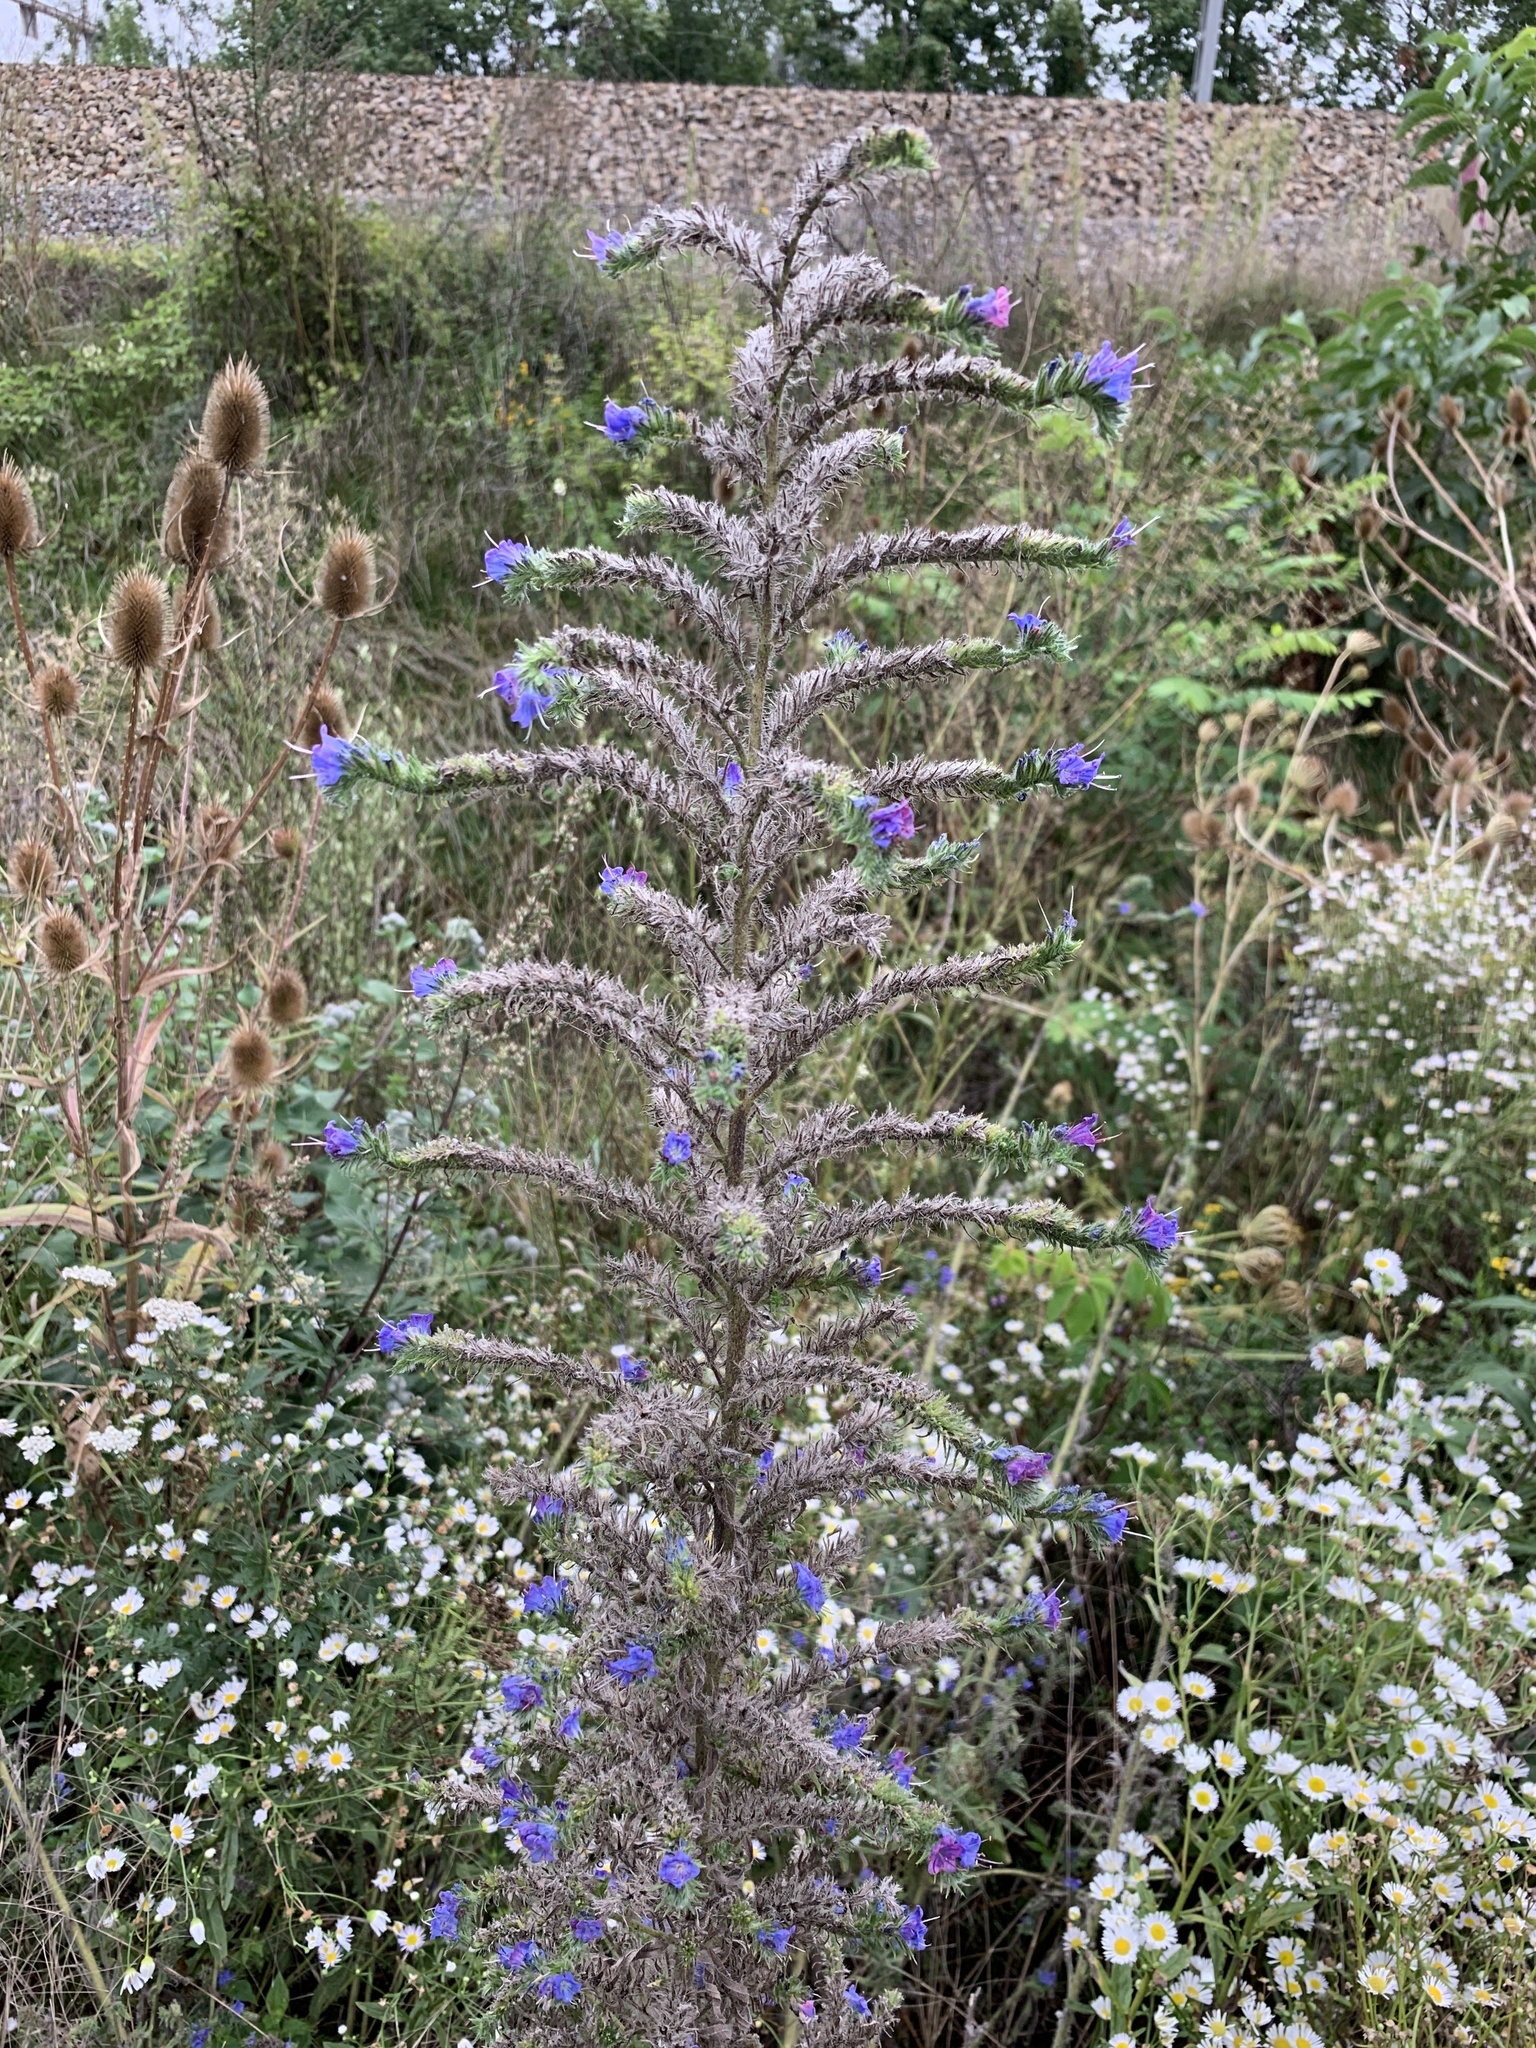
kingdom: Plantae
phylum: Tracheophyta
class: Magnoliopsida
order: Boraginales
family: Boraginaceae
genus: Echium
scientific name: Echium vulgare
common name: Common viper's bugloss
